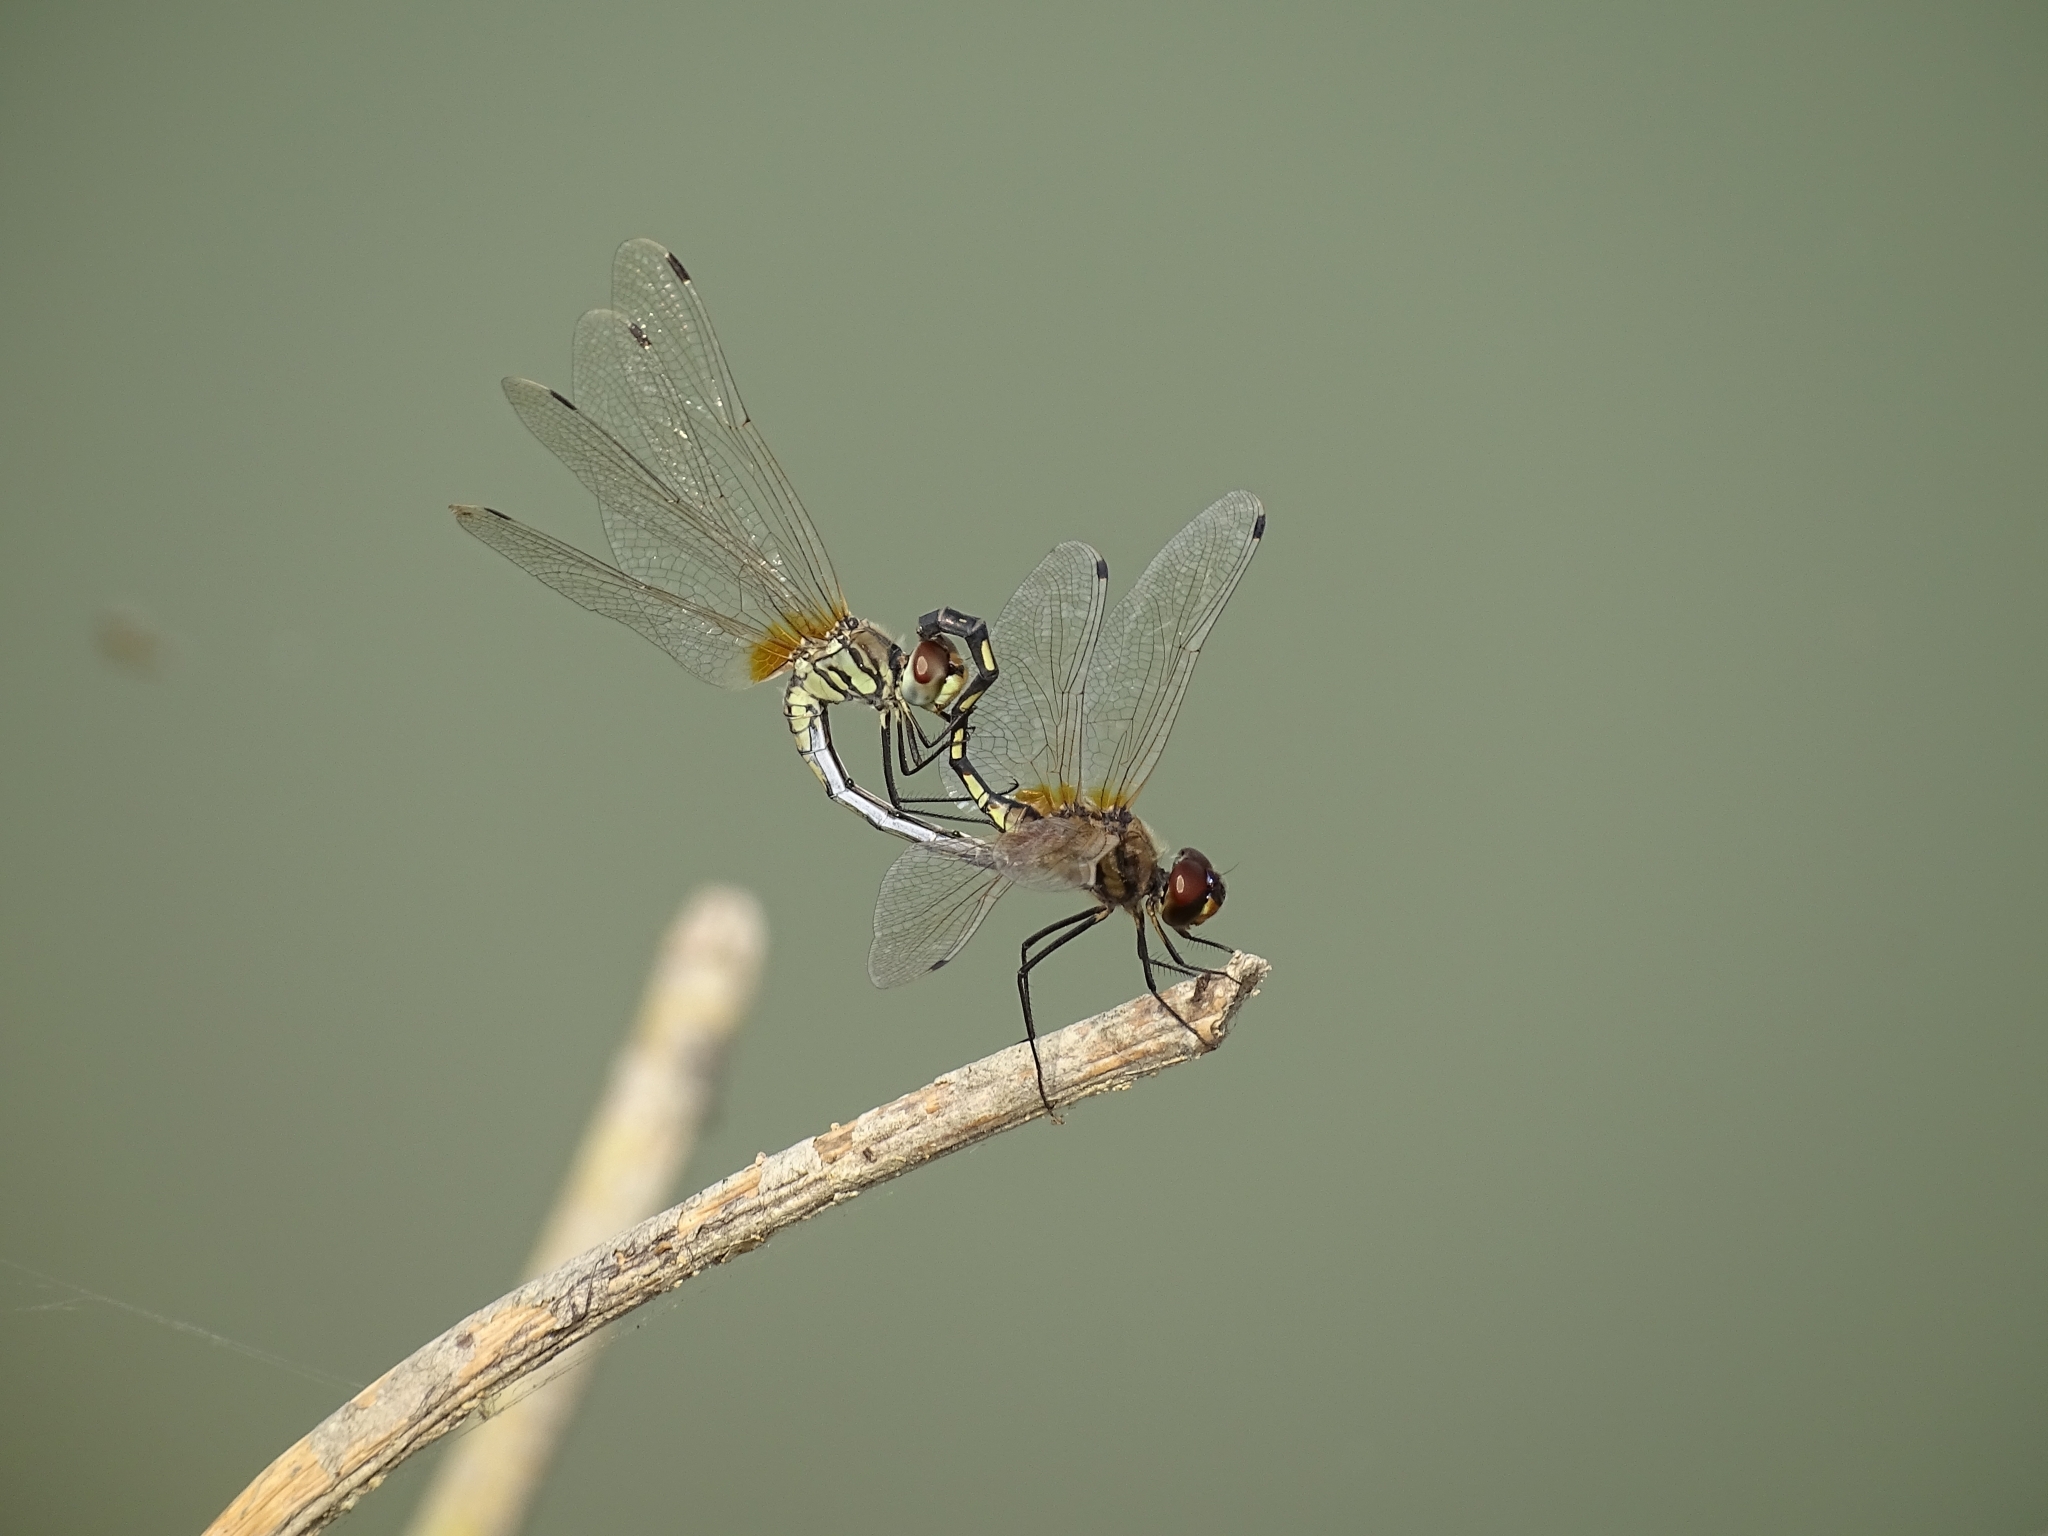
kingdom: Animalia
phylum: Arthropoda
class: Insecta
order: Odonata
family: Libellulidae
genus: Trithemis
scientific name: Trithemis pallidinervis
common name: Dancing dropwing
